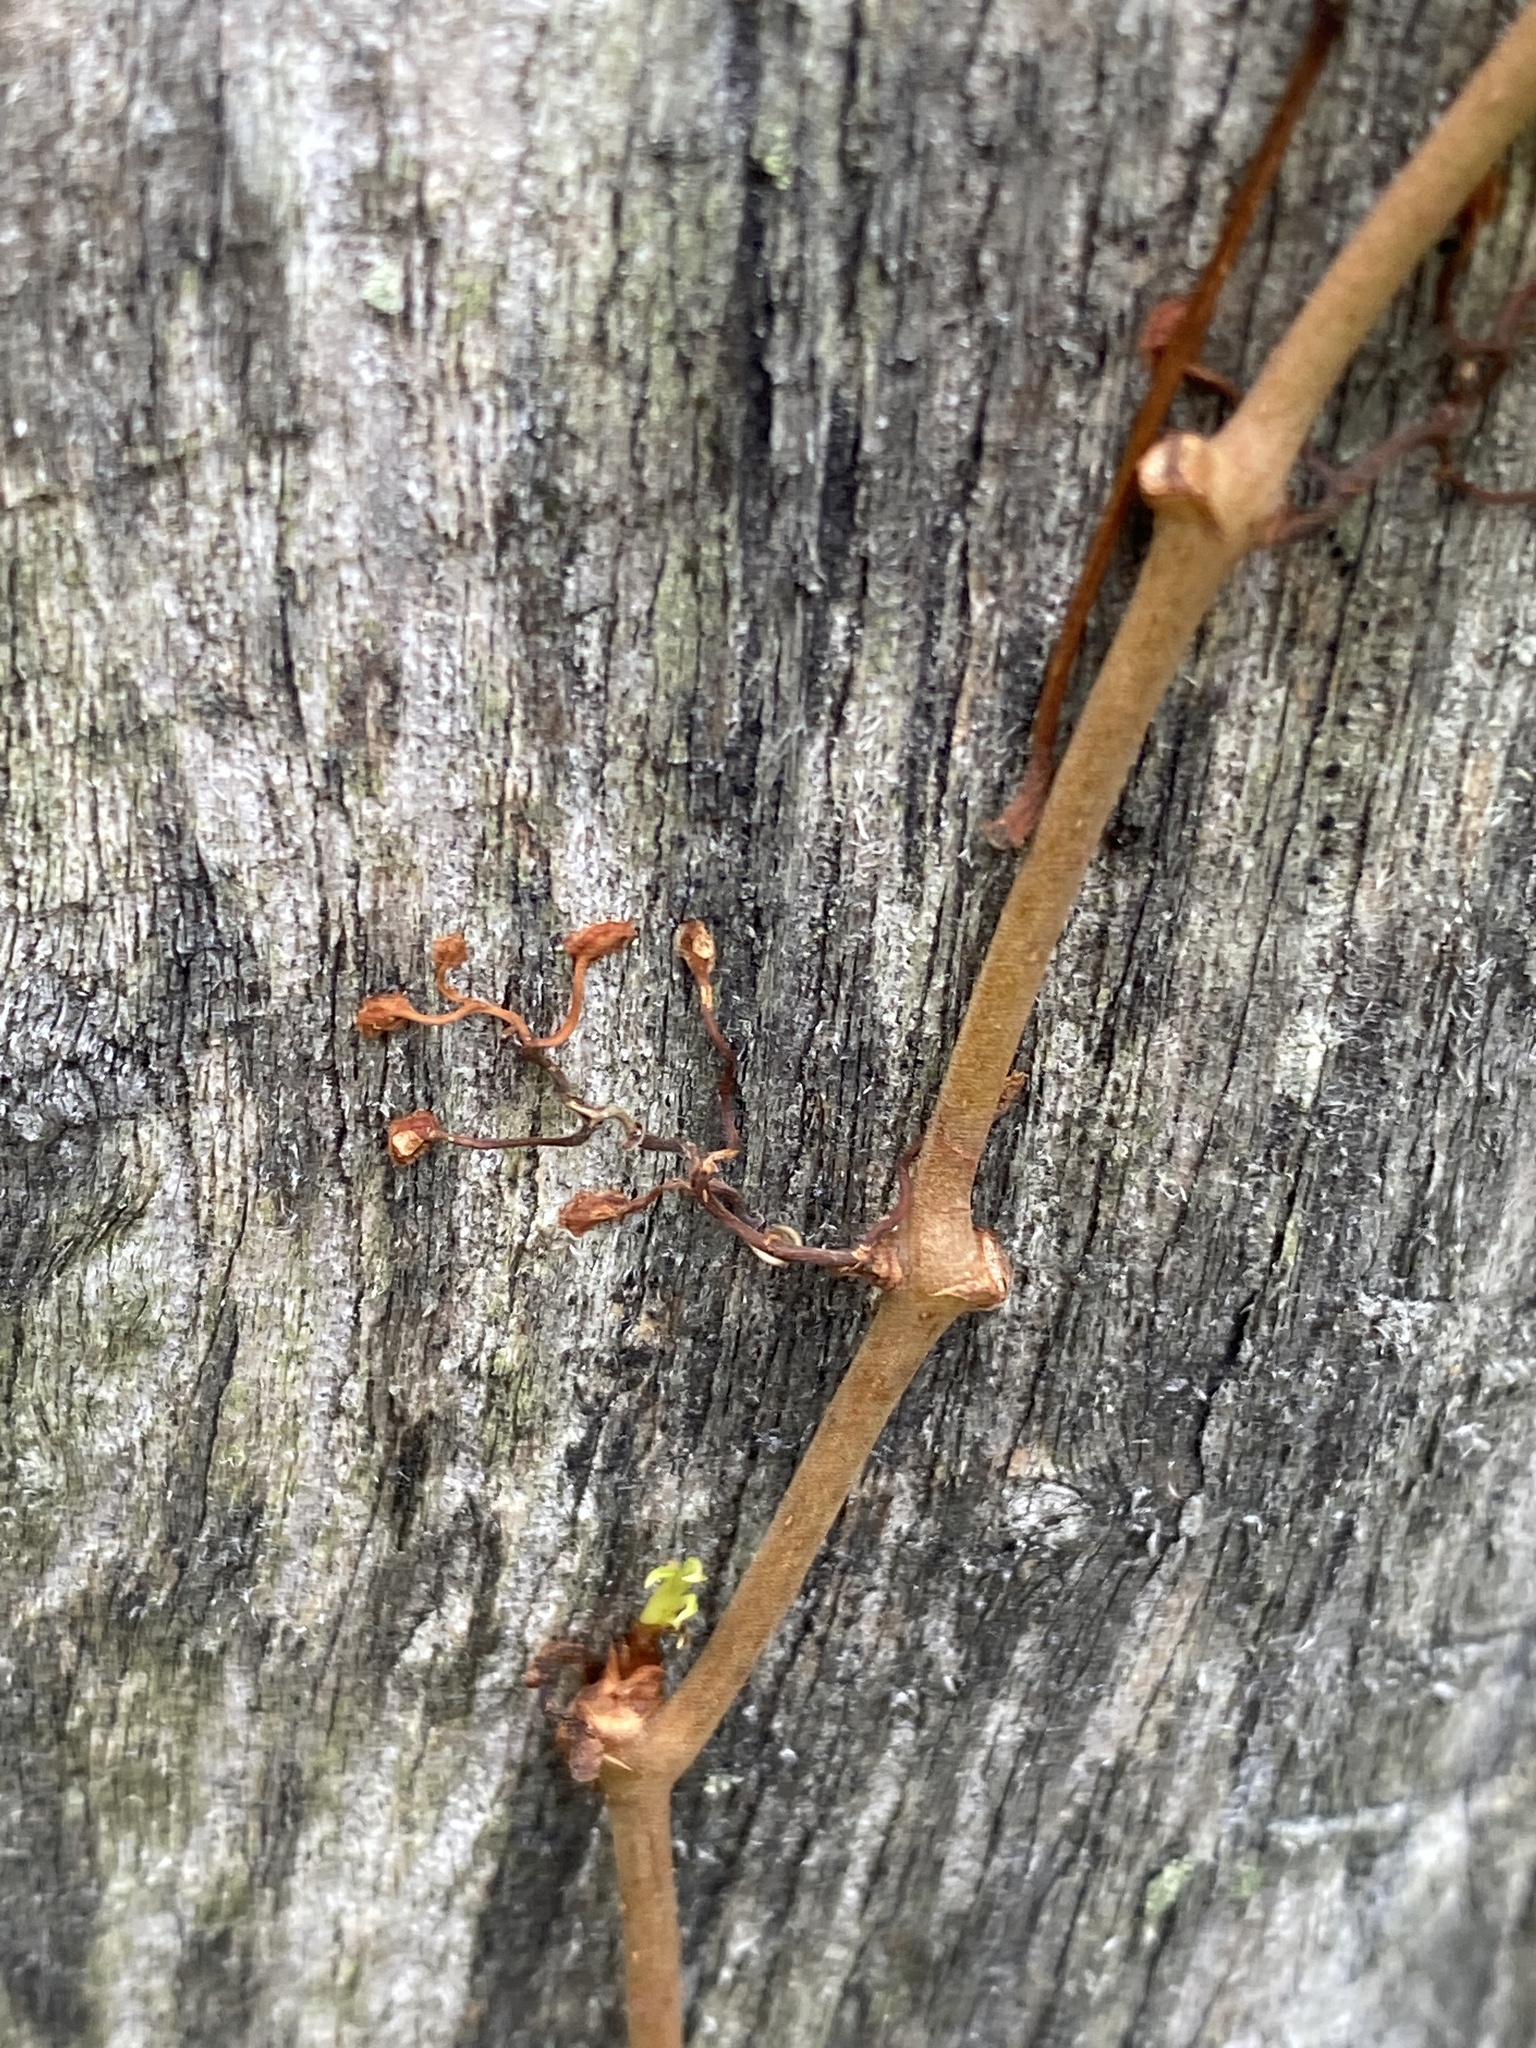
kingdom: Plantae
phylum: Tracheophyta
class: Magnoliopsida
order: Vitales
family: Vitaceae
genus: Parthenocissus
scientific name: Parthenocissus quinquefolia
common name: Virginia-creeper
